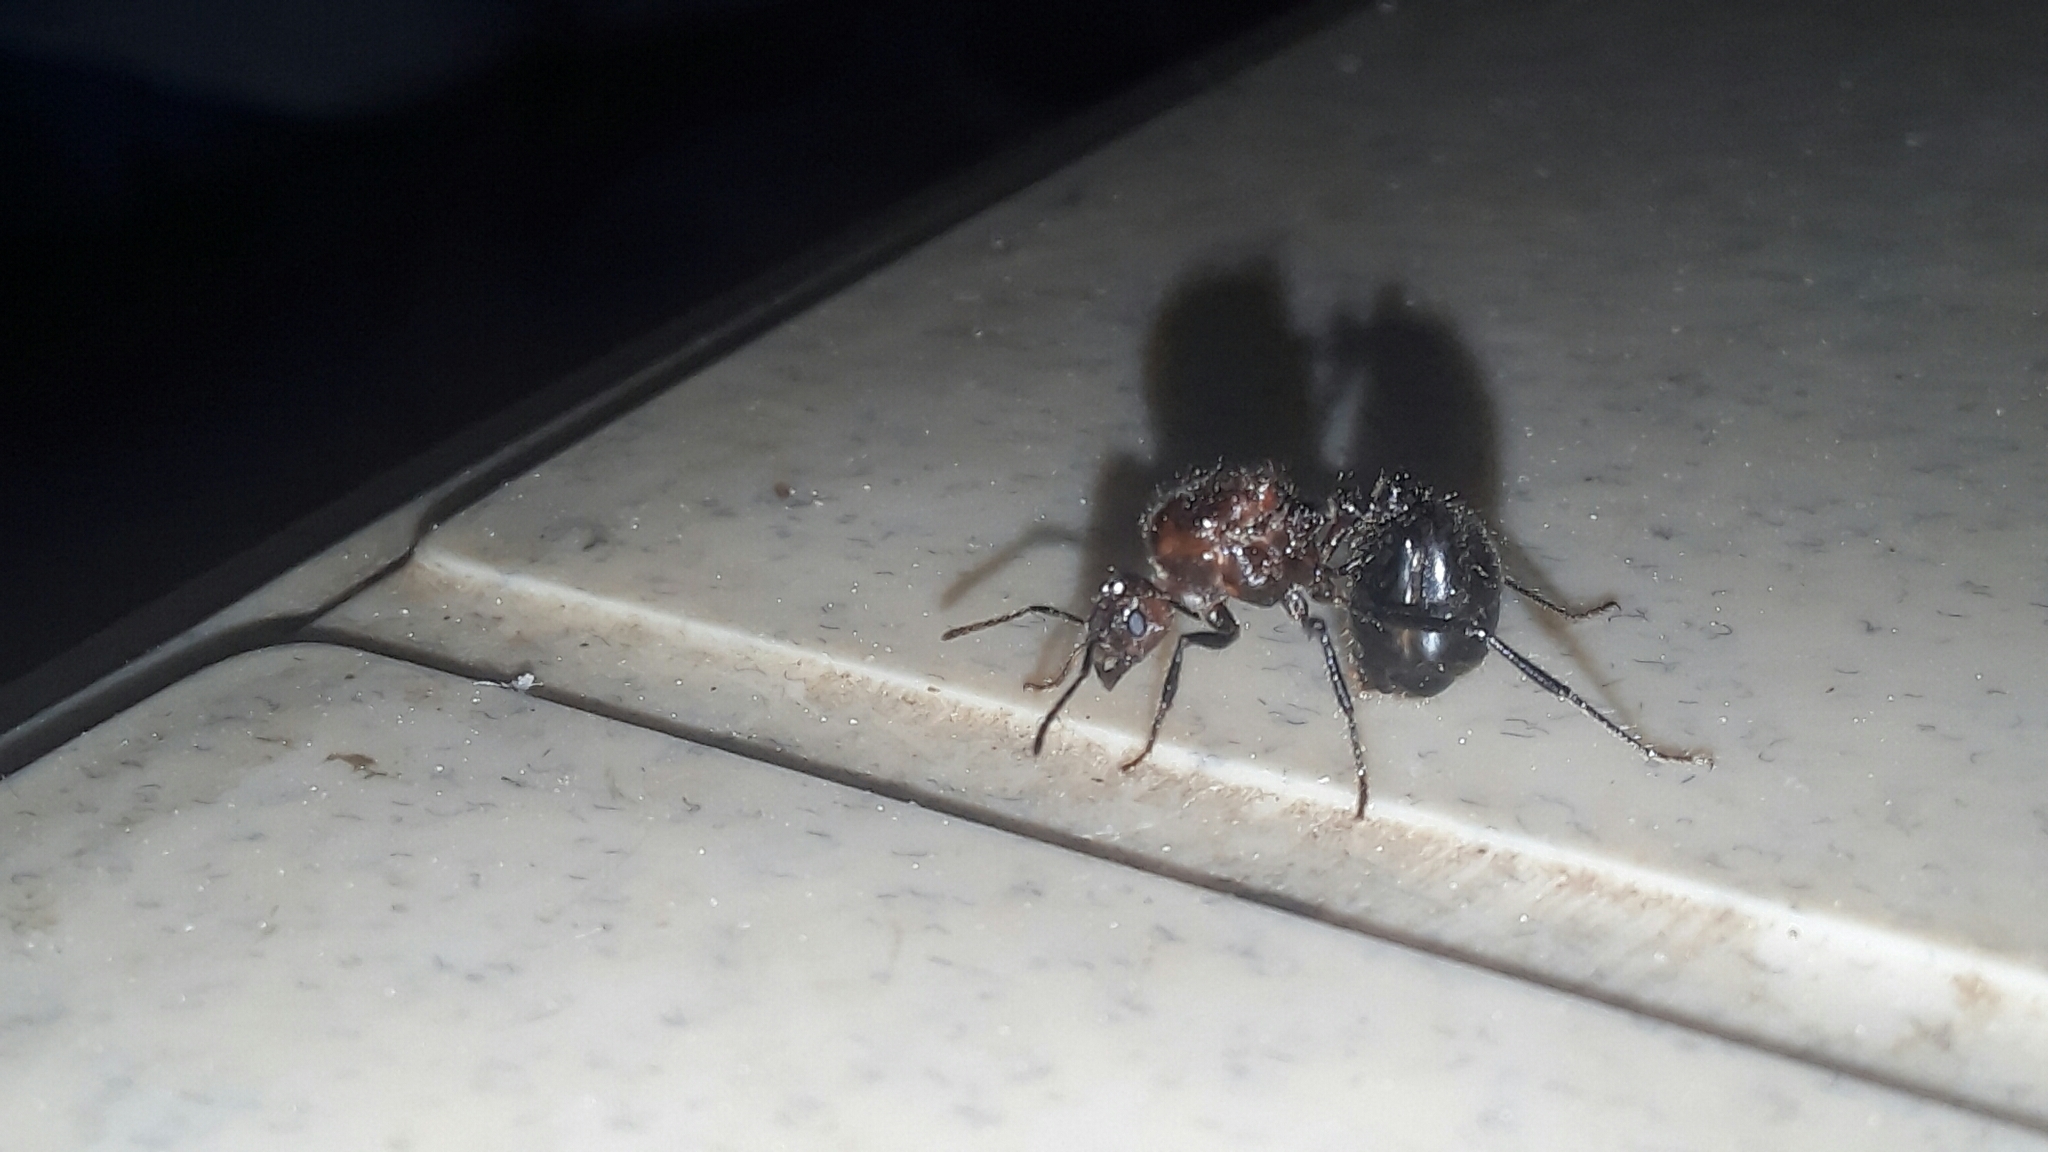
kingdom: Animalia
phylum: Arthropoda
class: Insecta
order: Hymenoptera
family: Formicidae
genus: Myrmicaria
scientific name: Myrmicaria brunnea
